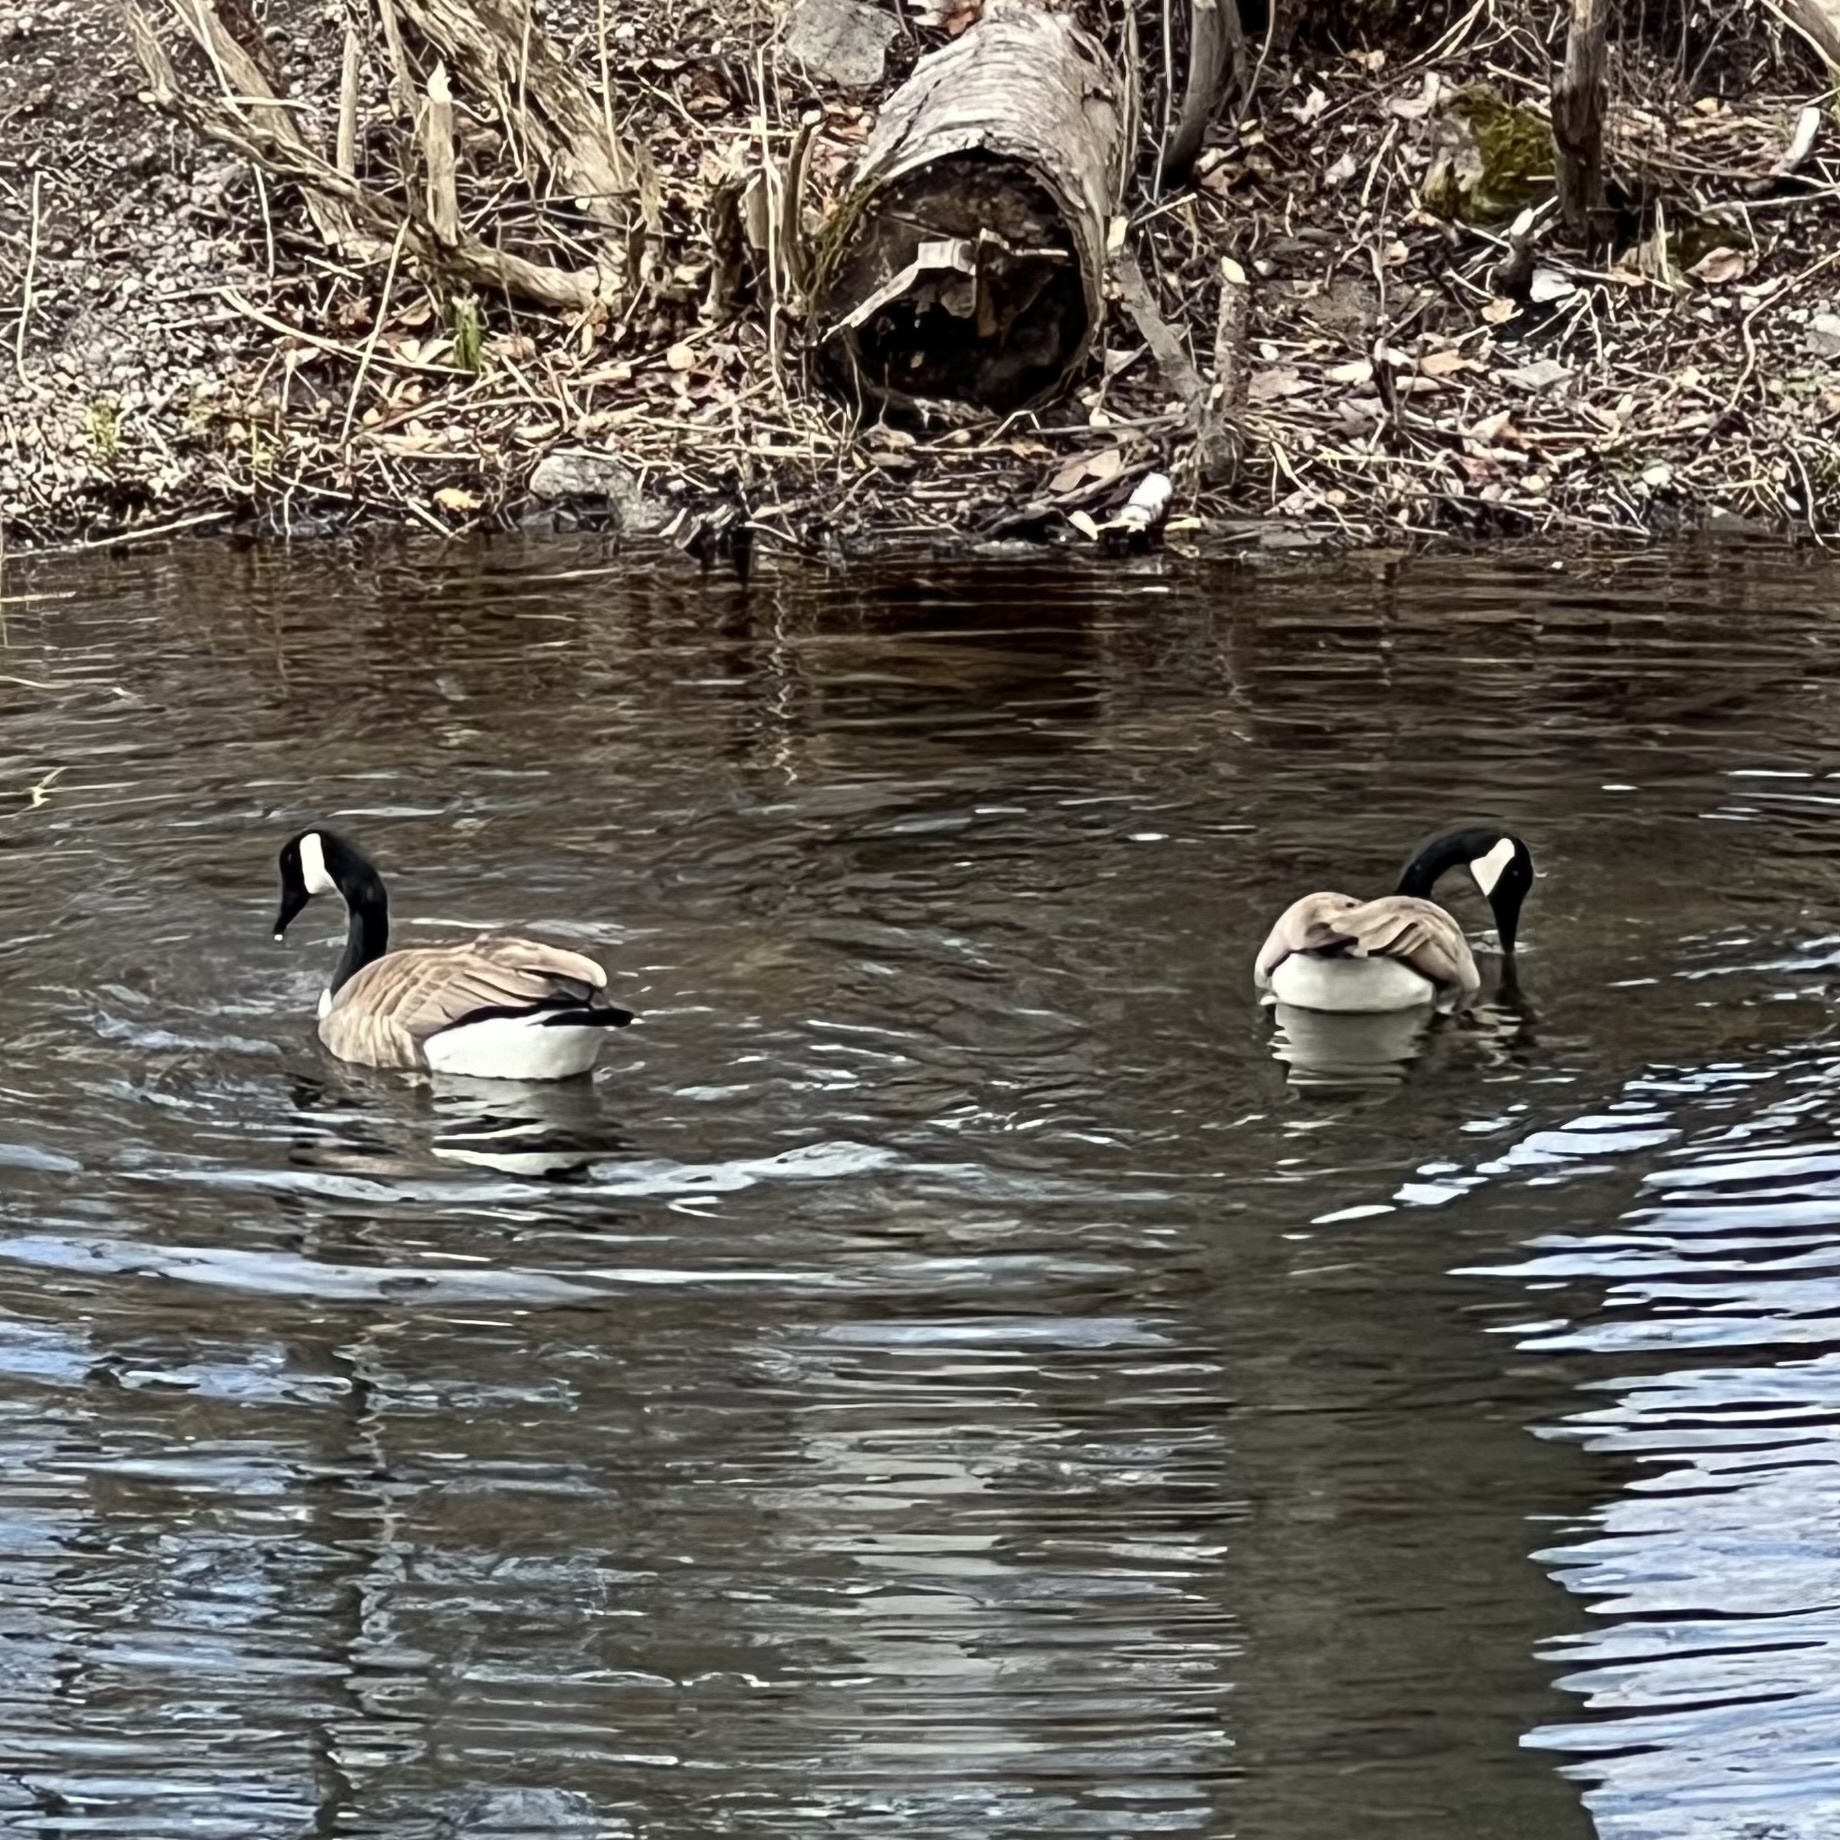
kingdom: Animalia
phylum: Chordata
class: Aves
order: Anseriformes
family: Anatidae
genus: Branta
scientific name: Branta canadensis
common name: Canada goose
